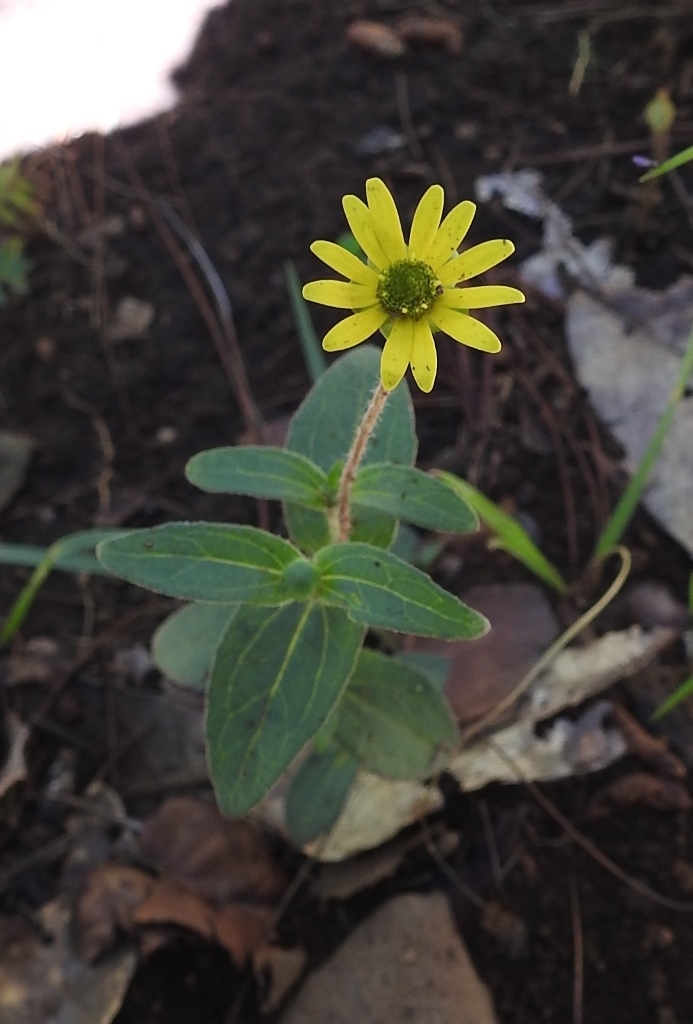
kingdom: Plantae
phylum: Tracheophyta
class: Magnoliopsida
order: Asterales
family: Asteraceae
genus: Melampodium
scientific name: Melampodium montanum
